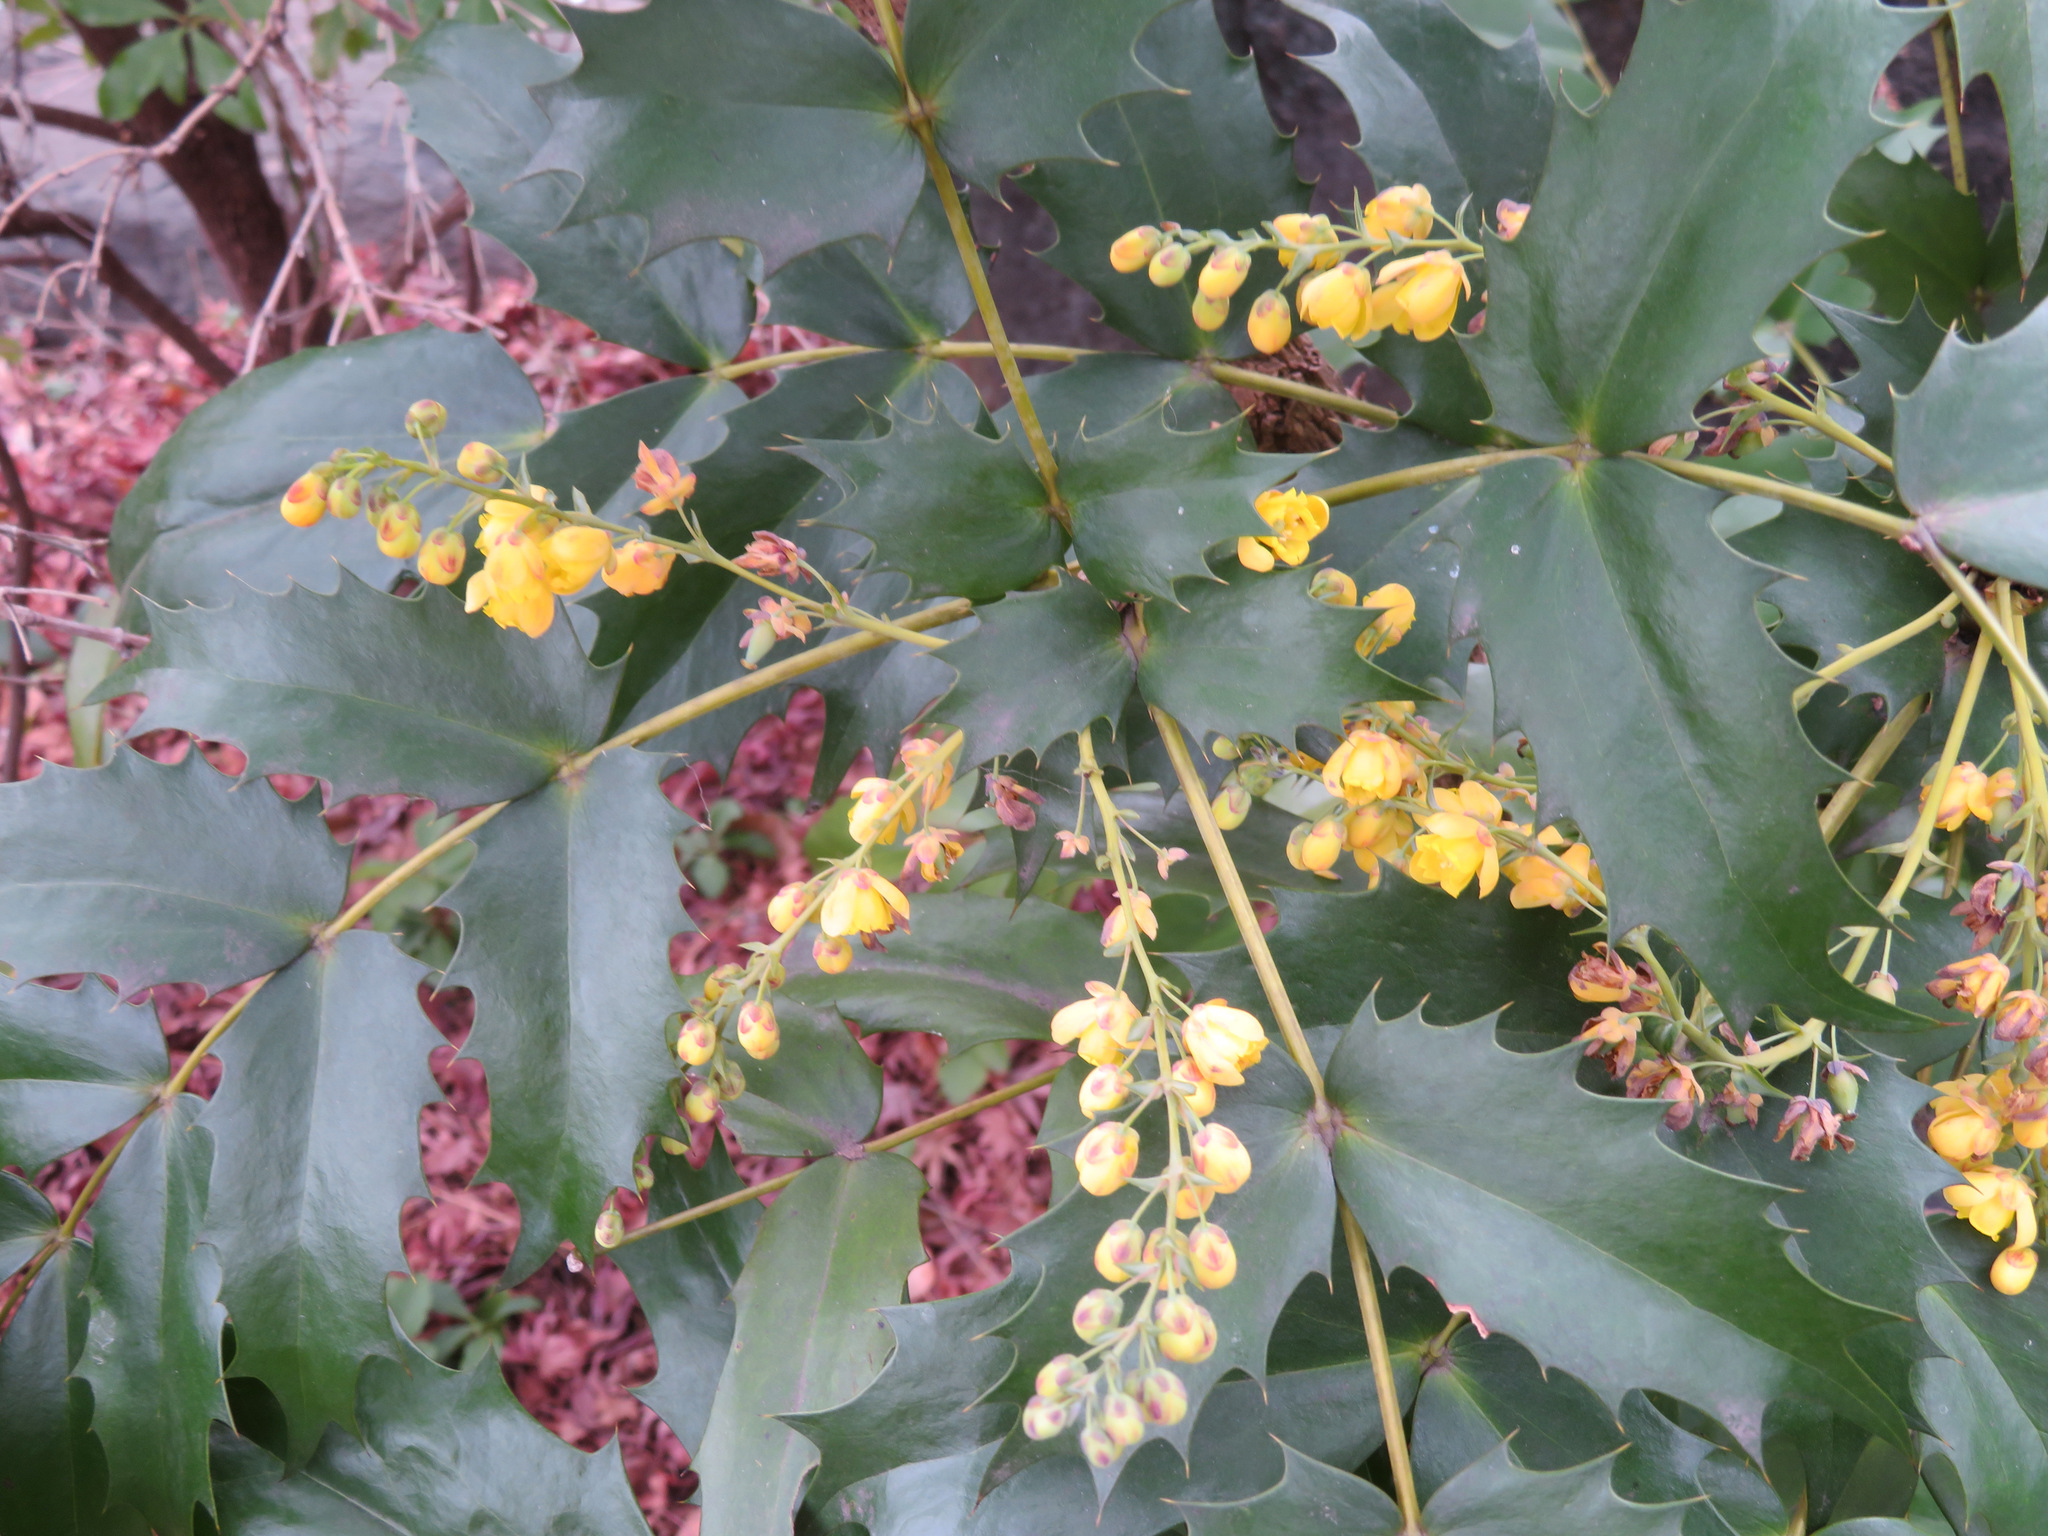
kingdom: Plantae
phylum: Tracheophyta
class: Magnoliopsida
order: Ranunculales
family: Berberidaceae
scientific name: Berberidaceae
